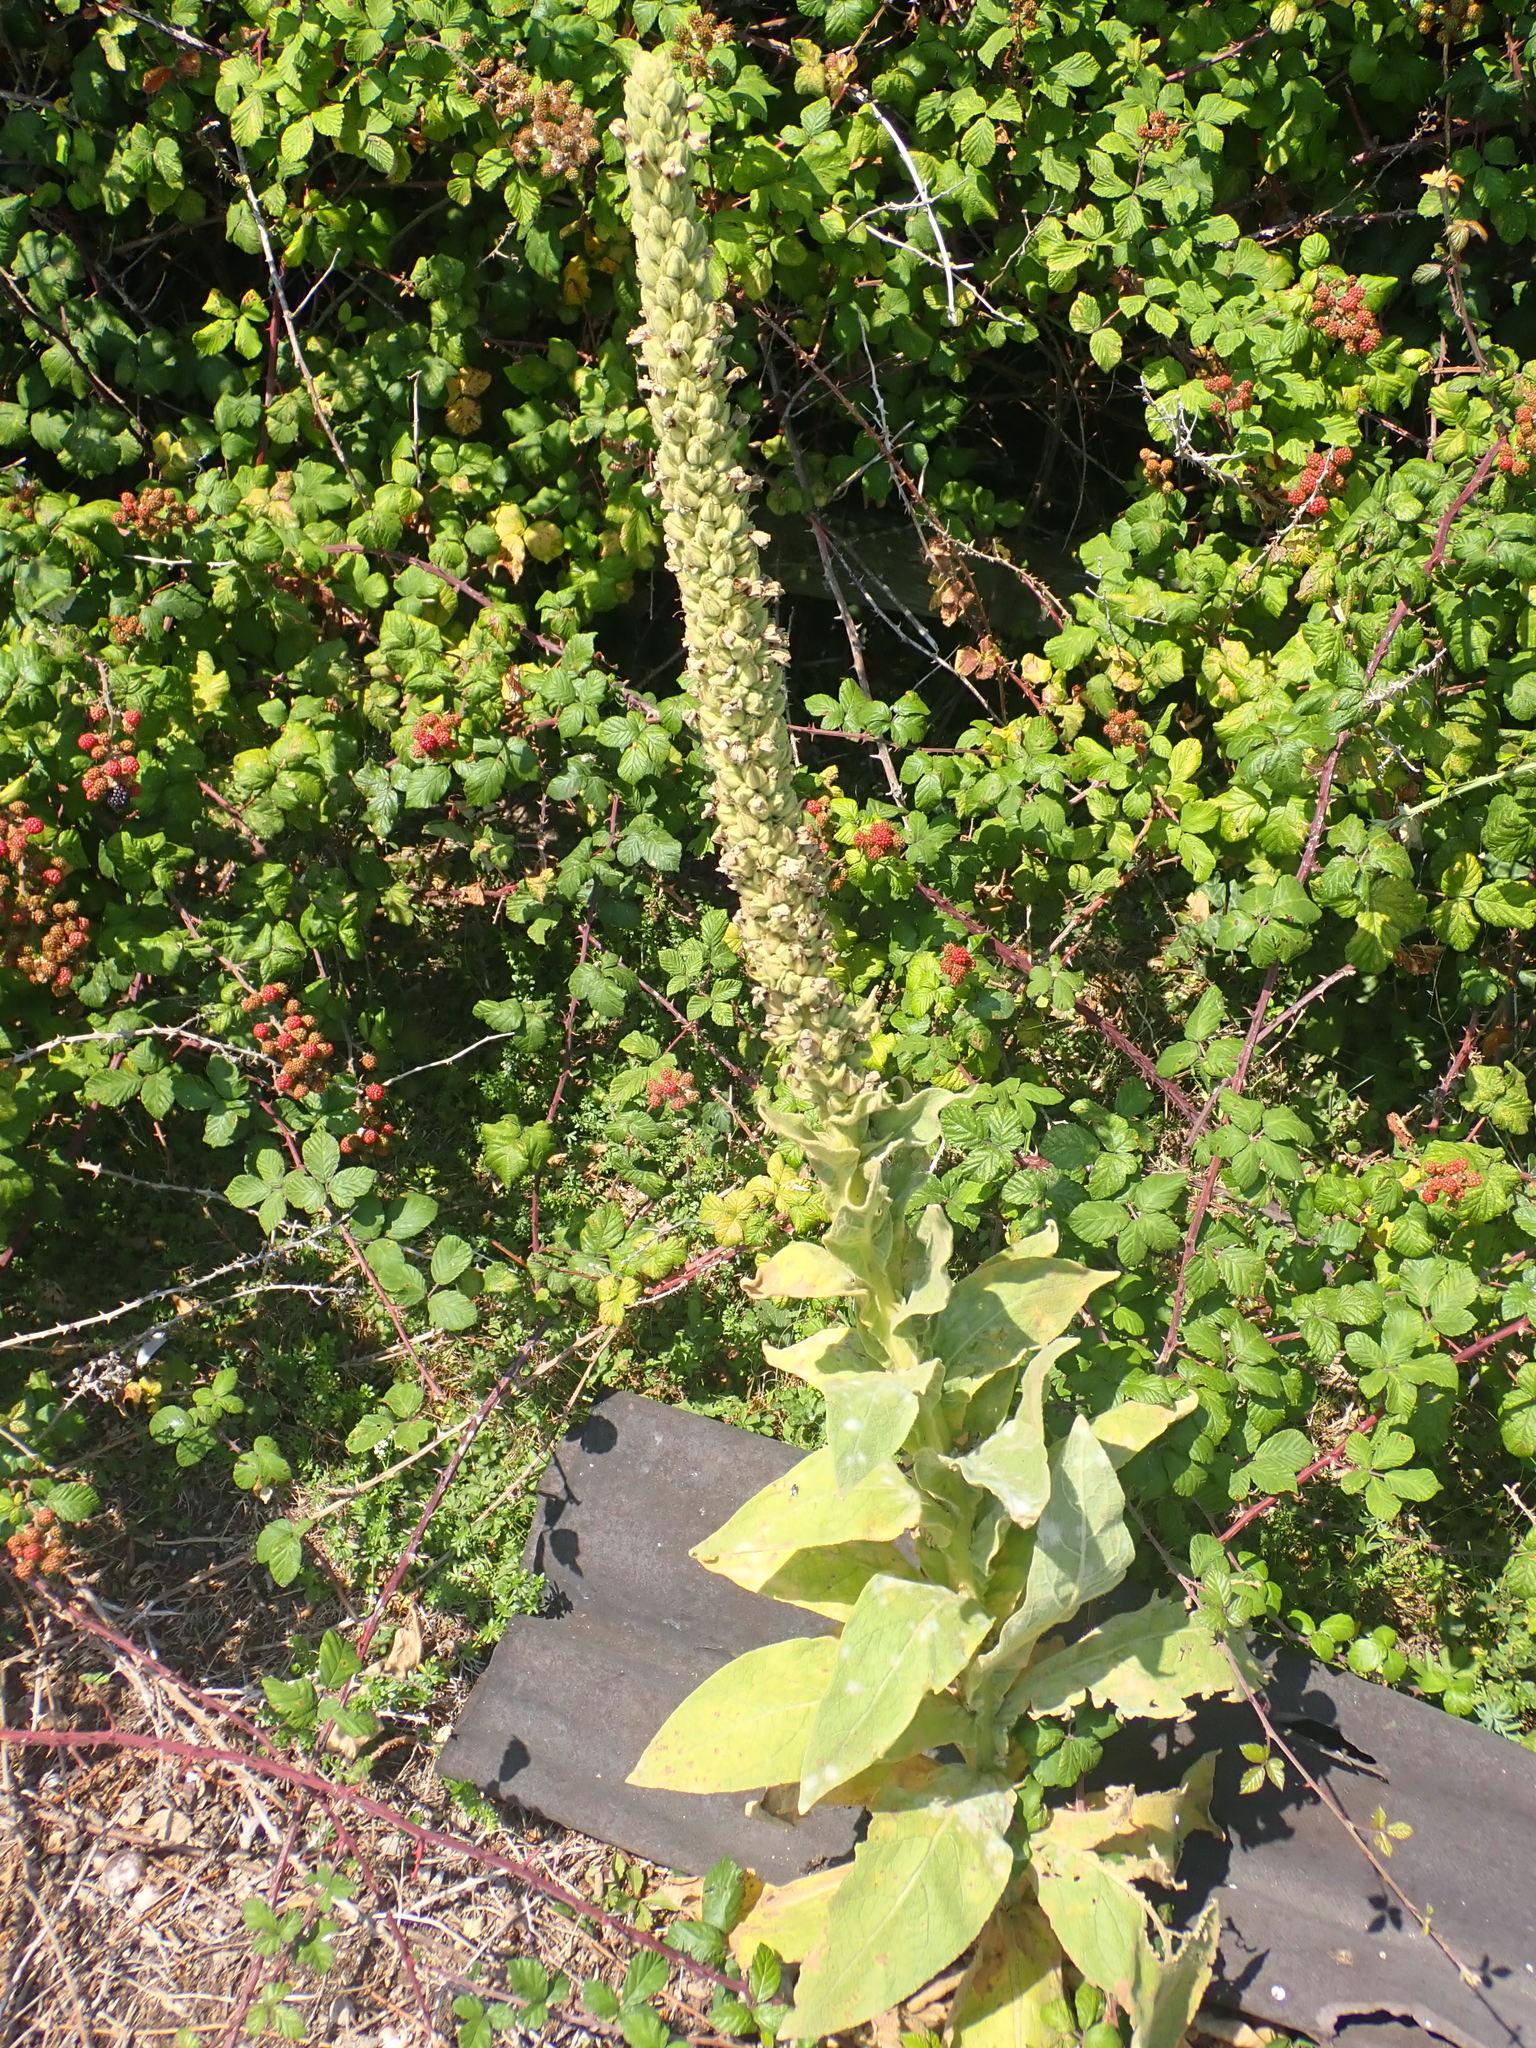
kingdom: Plantae
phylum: Tracheophyta
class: Magnoliopsida
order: Lamiales
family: Scrophulariaceae
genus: Verbascum
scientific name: Verbascum thapsus
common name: Common mullein
